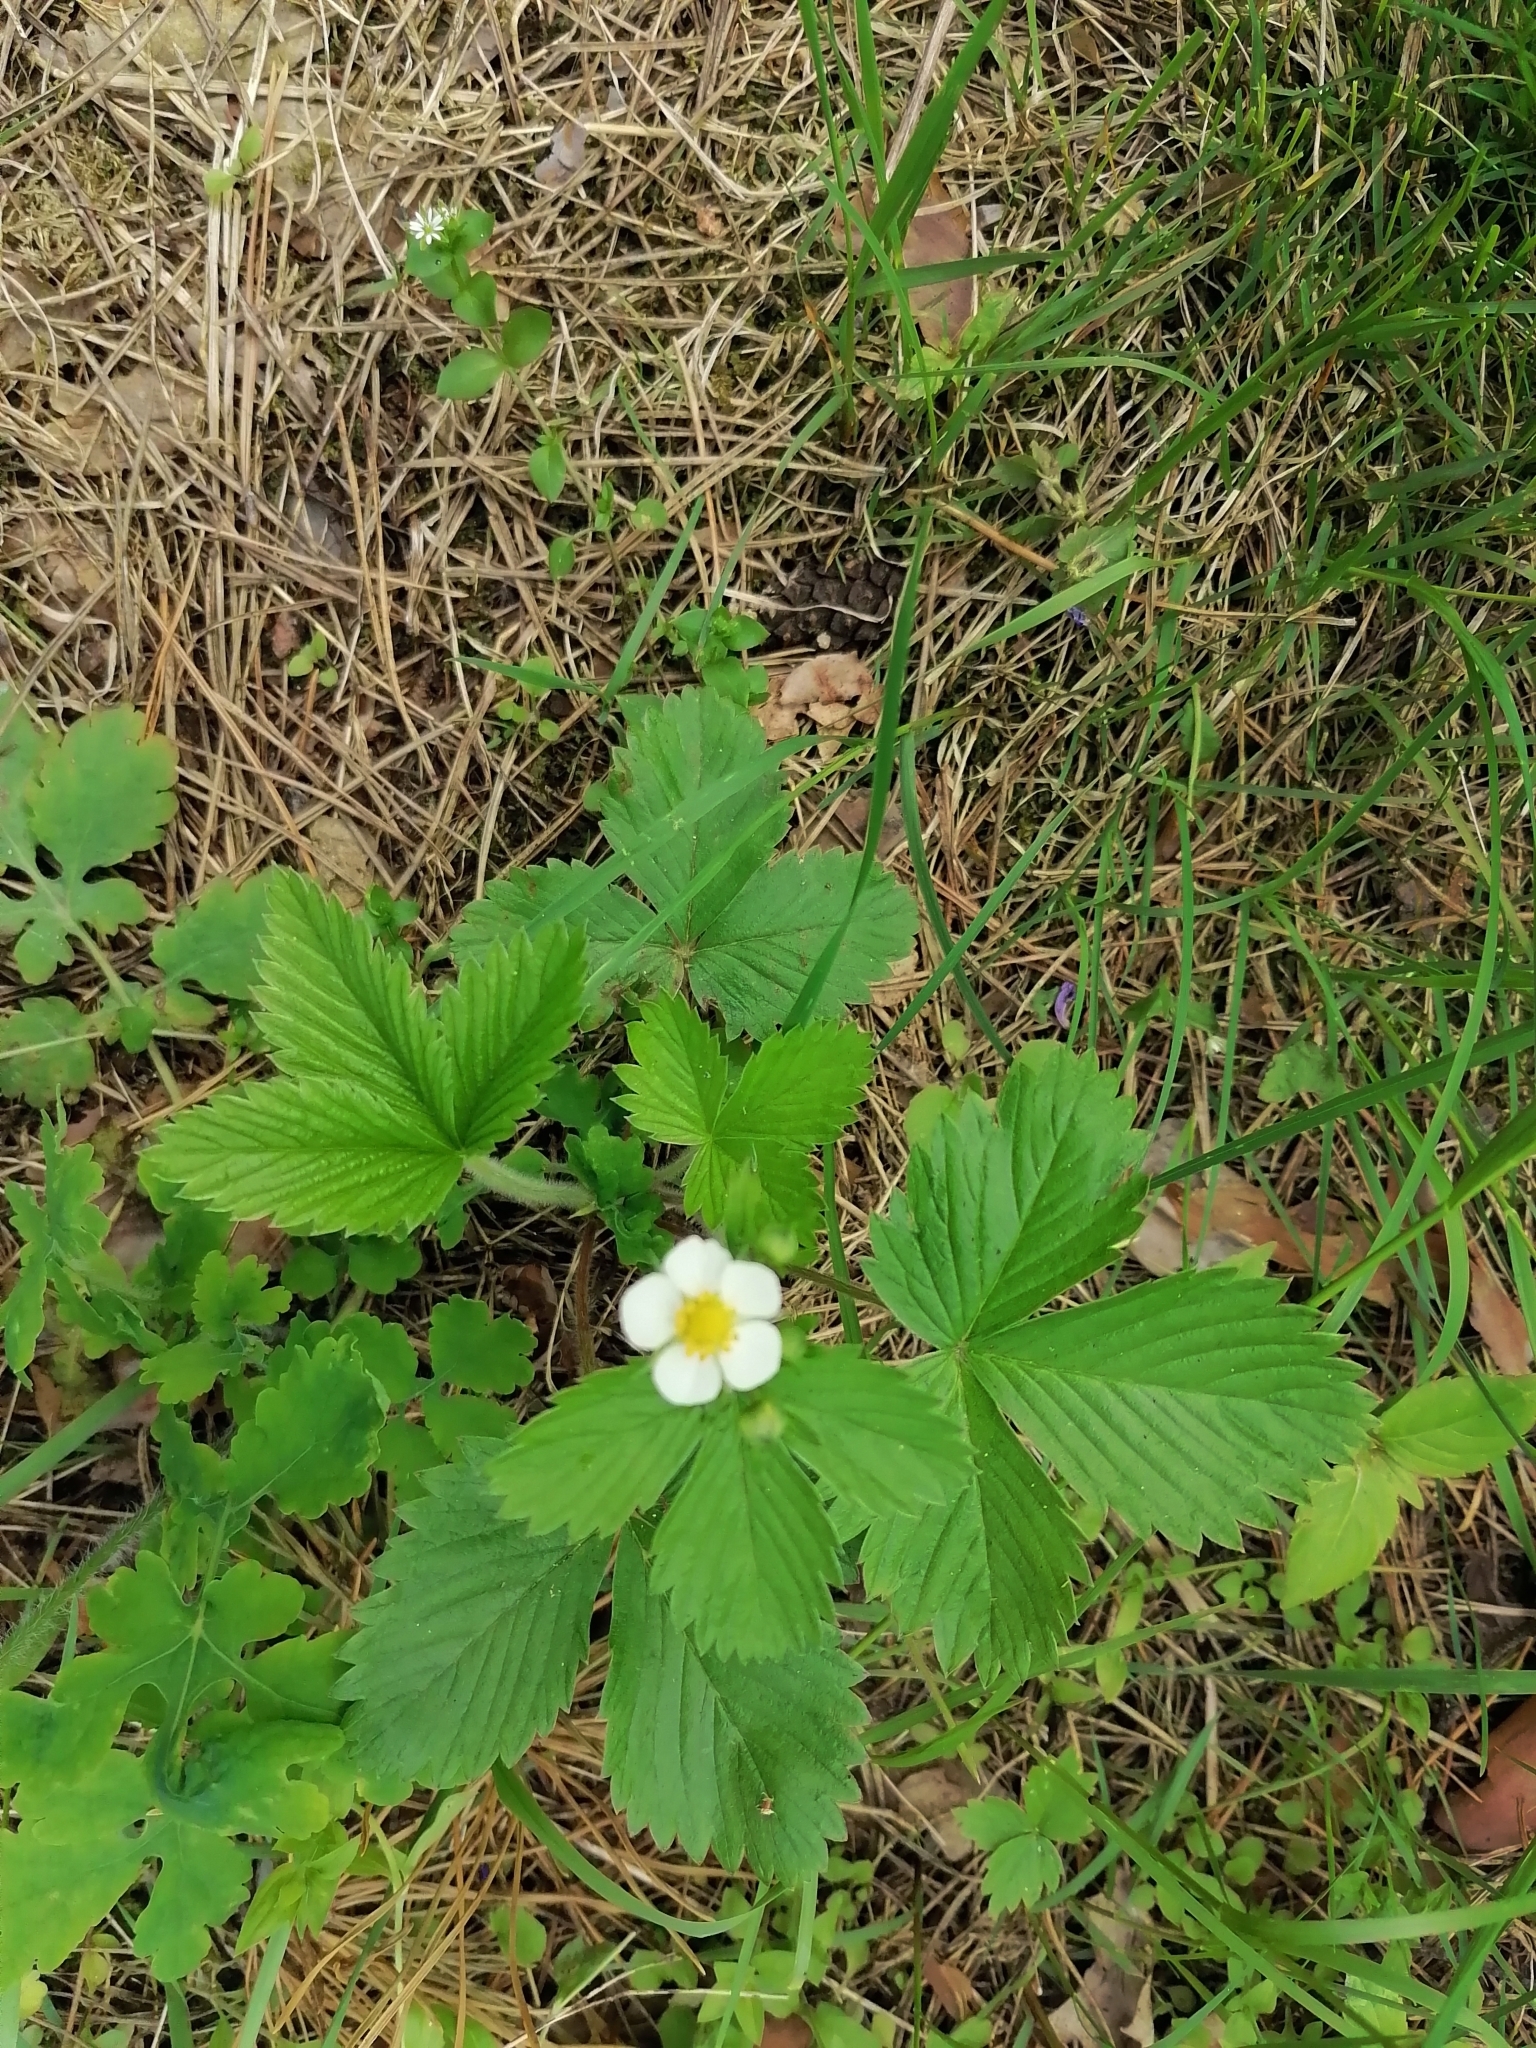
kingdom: Plantae
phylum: Tracheophyta
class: Magnoliopsida
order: Rosales
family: Rosaceae
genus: Fragaria
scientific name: Fragaria vesca
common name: Wild strawberry
